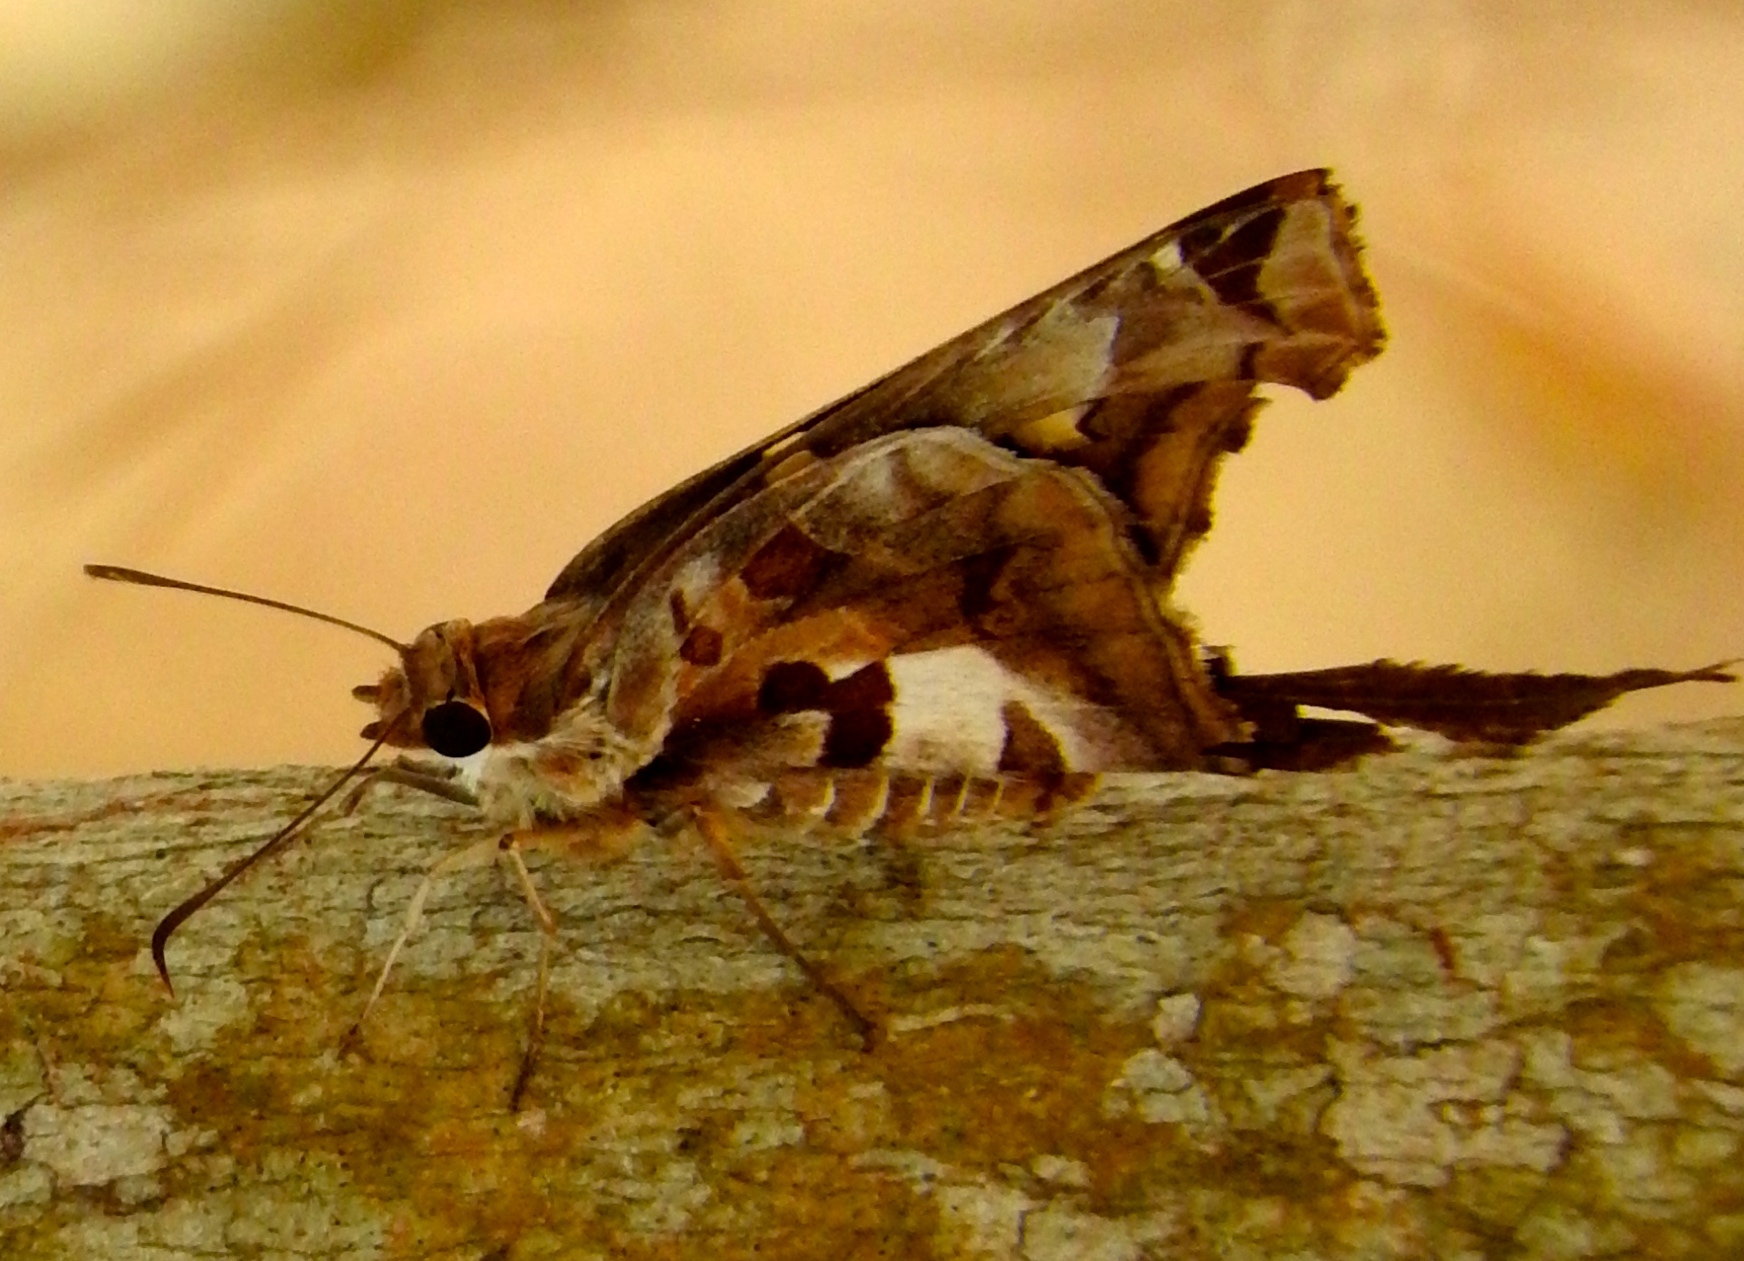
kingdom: Animalia
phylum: Arthropoda
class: Insecta
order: Lepidoptera
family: Hesperiidae
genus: Chioides
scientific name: Chioides zilpa
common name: Zilpa longtail
